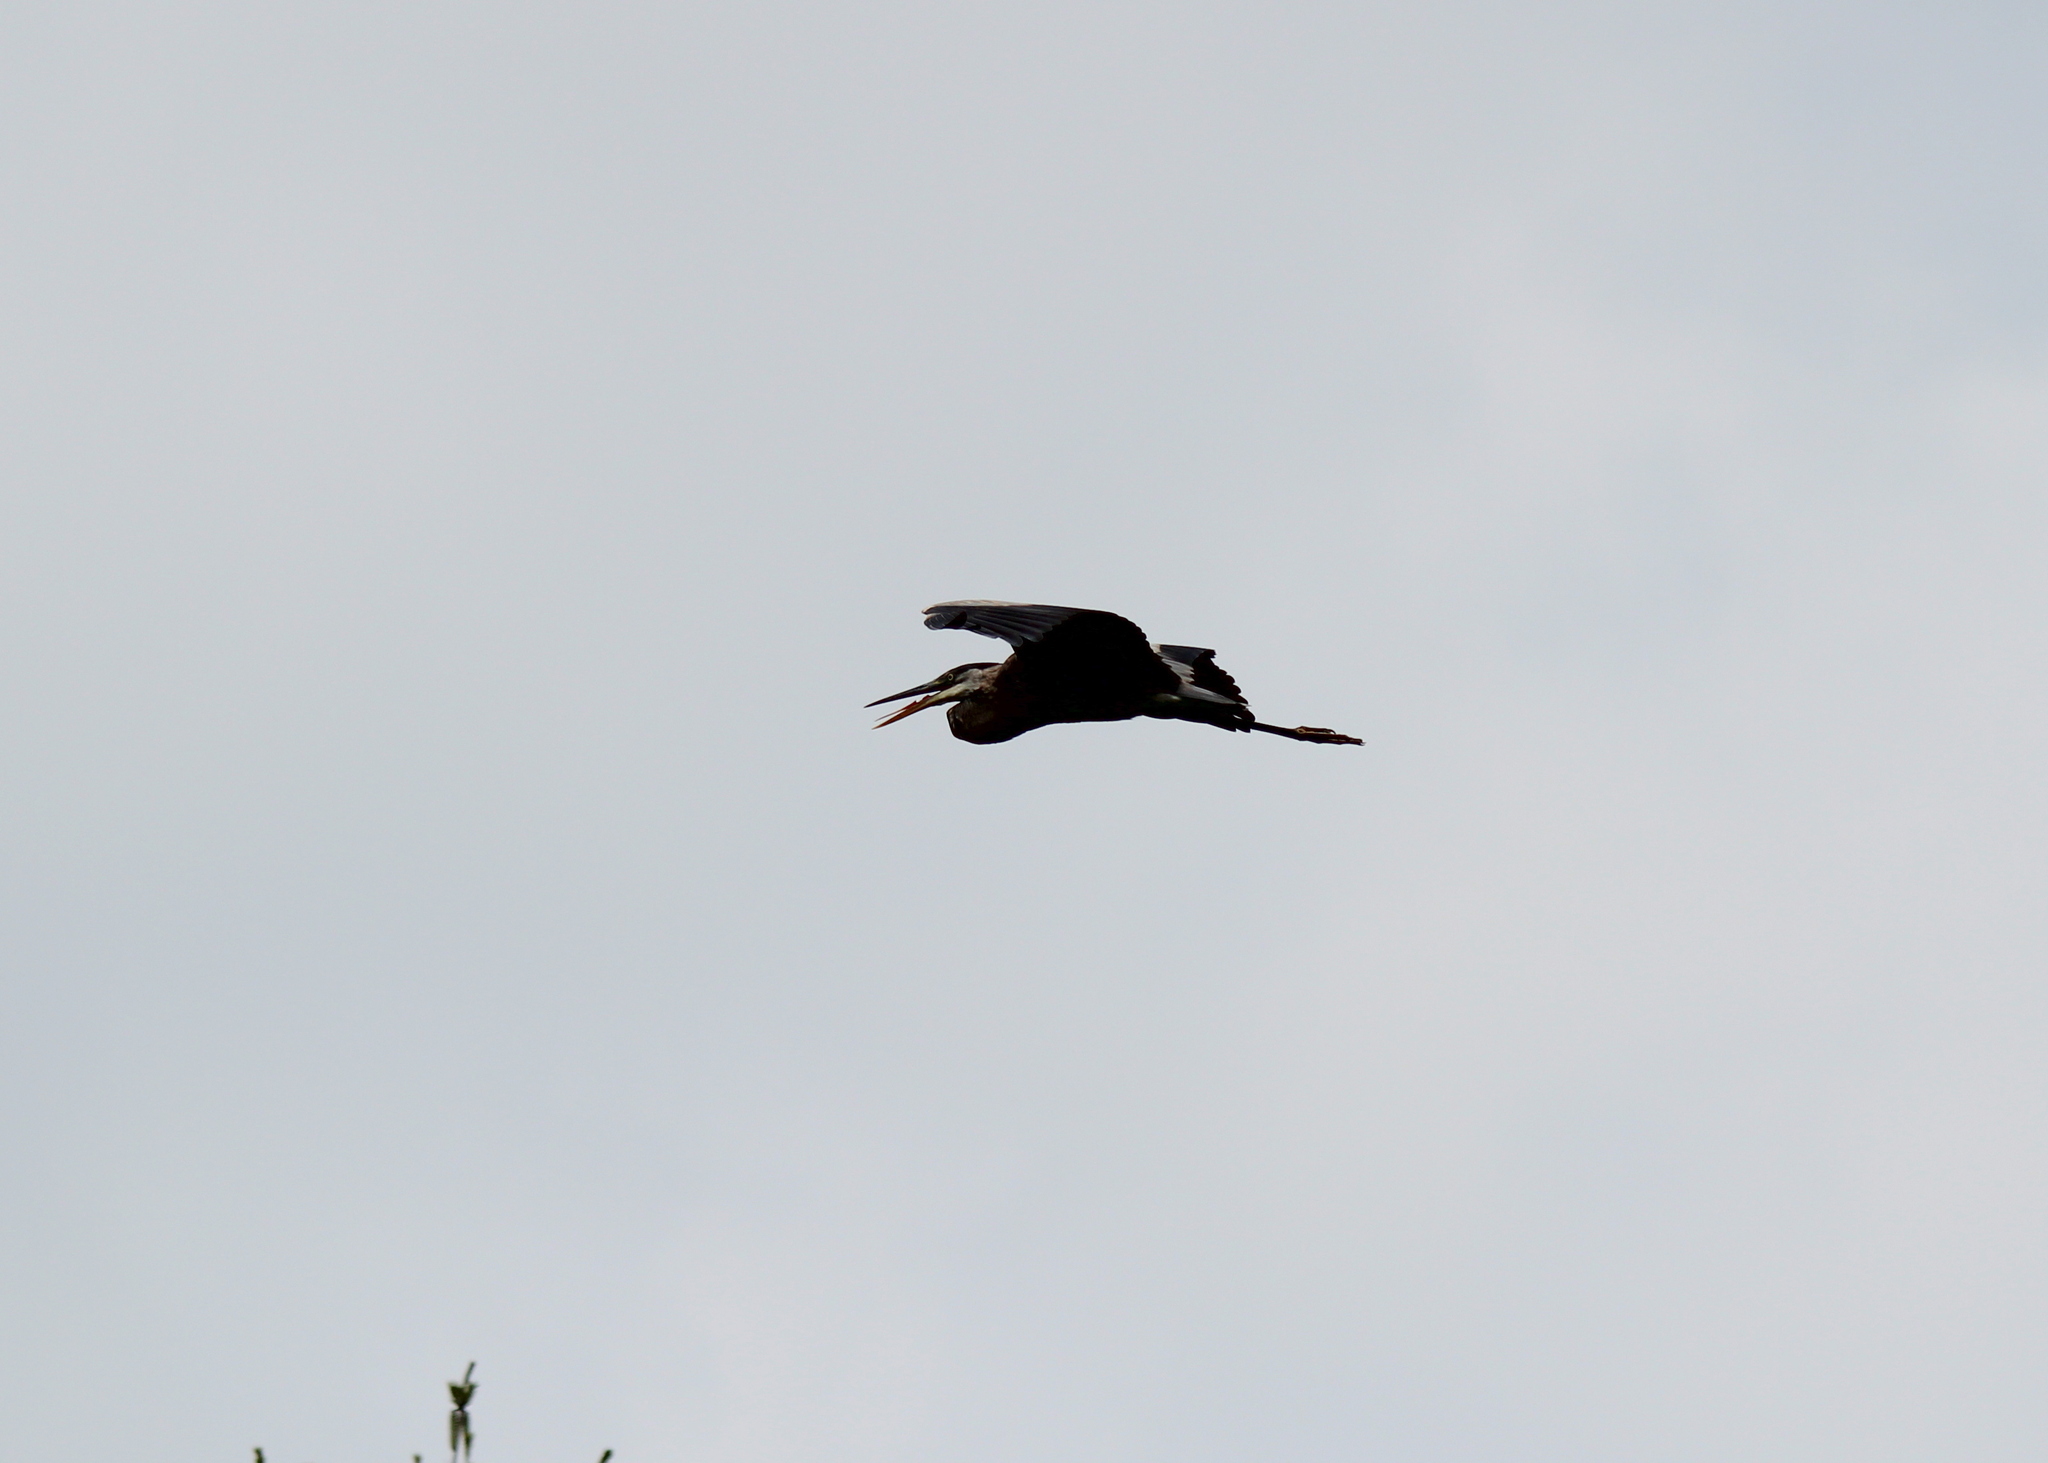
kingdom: Animalia
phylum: Chordata
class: Aves
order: Pelecaniformes
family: Ardeidae
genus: Ardea
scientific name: Ardea herodias
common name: Great blue heron
